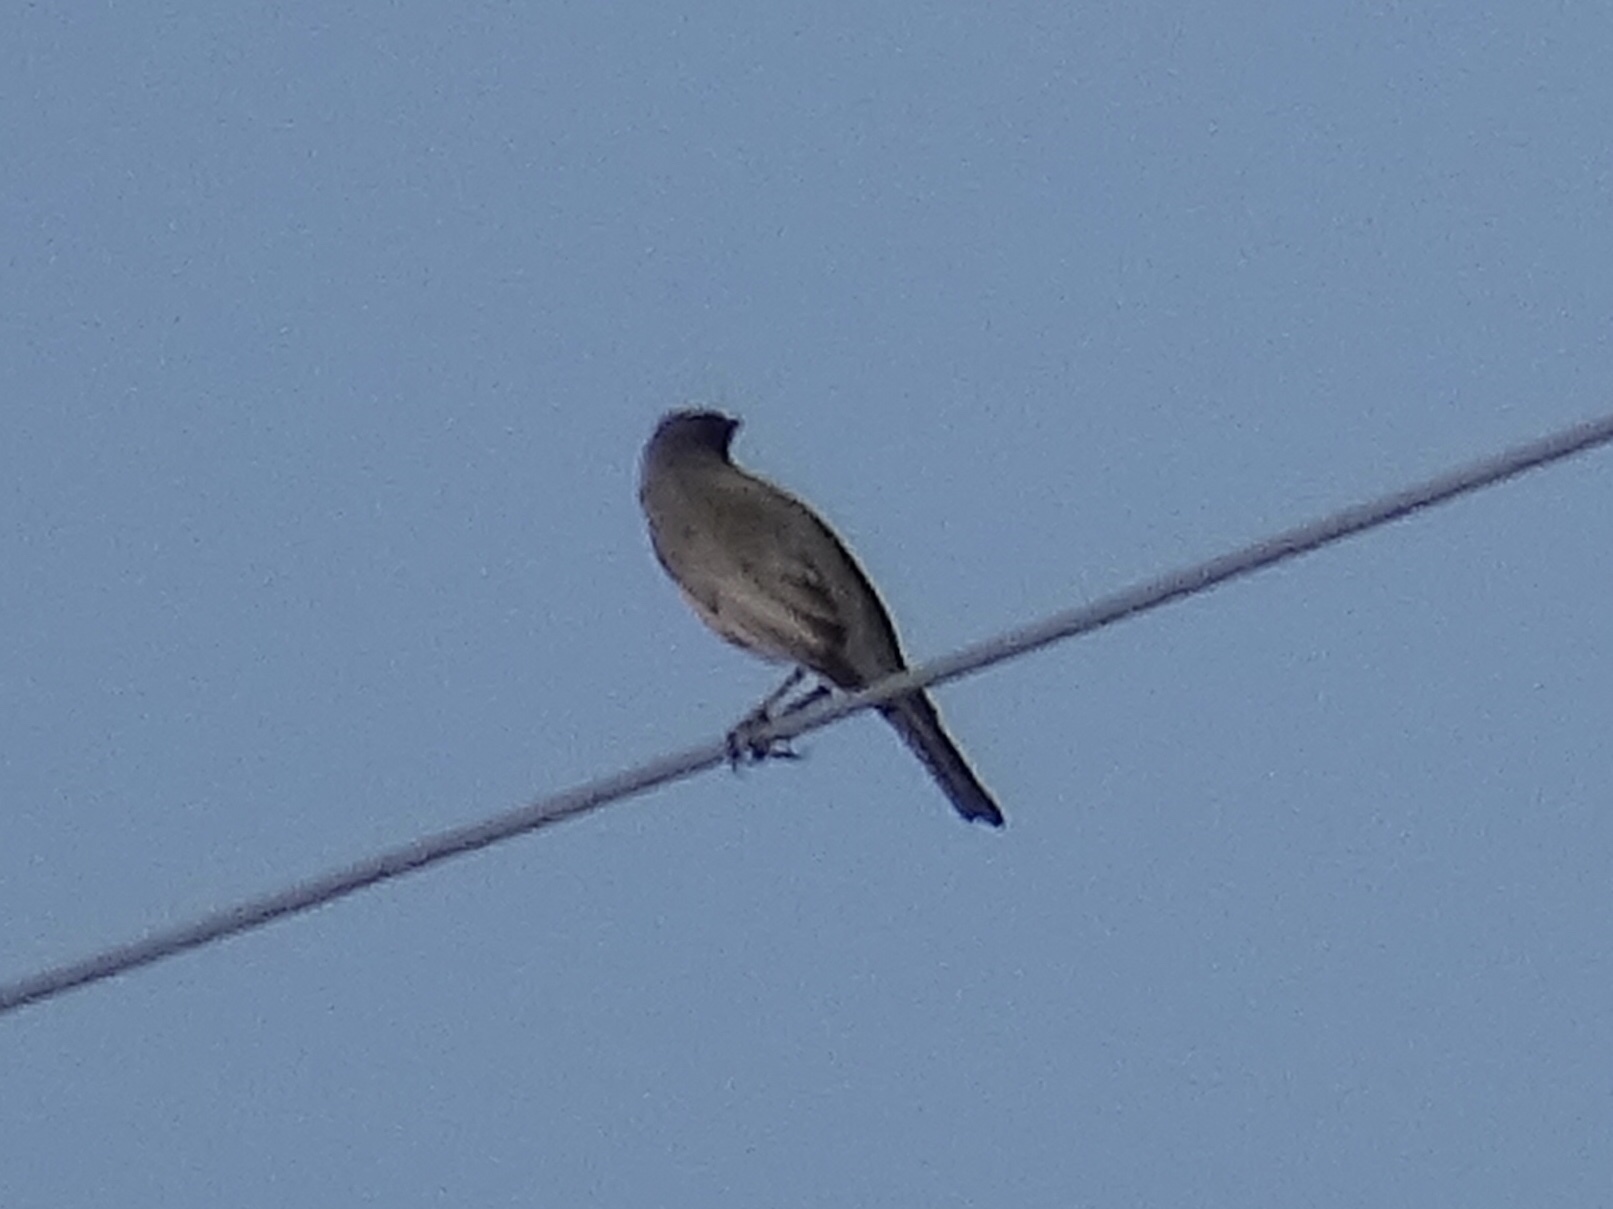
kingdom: Animalia
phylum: Chordata
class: Aves
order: Passeriformes
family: Turdidae
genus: Turdus
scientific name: Turdus migratorius
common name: American robin
